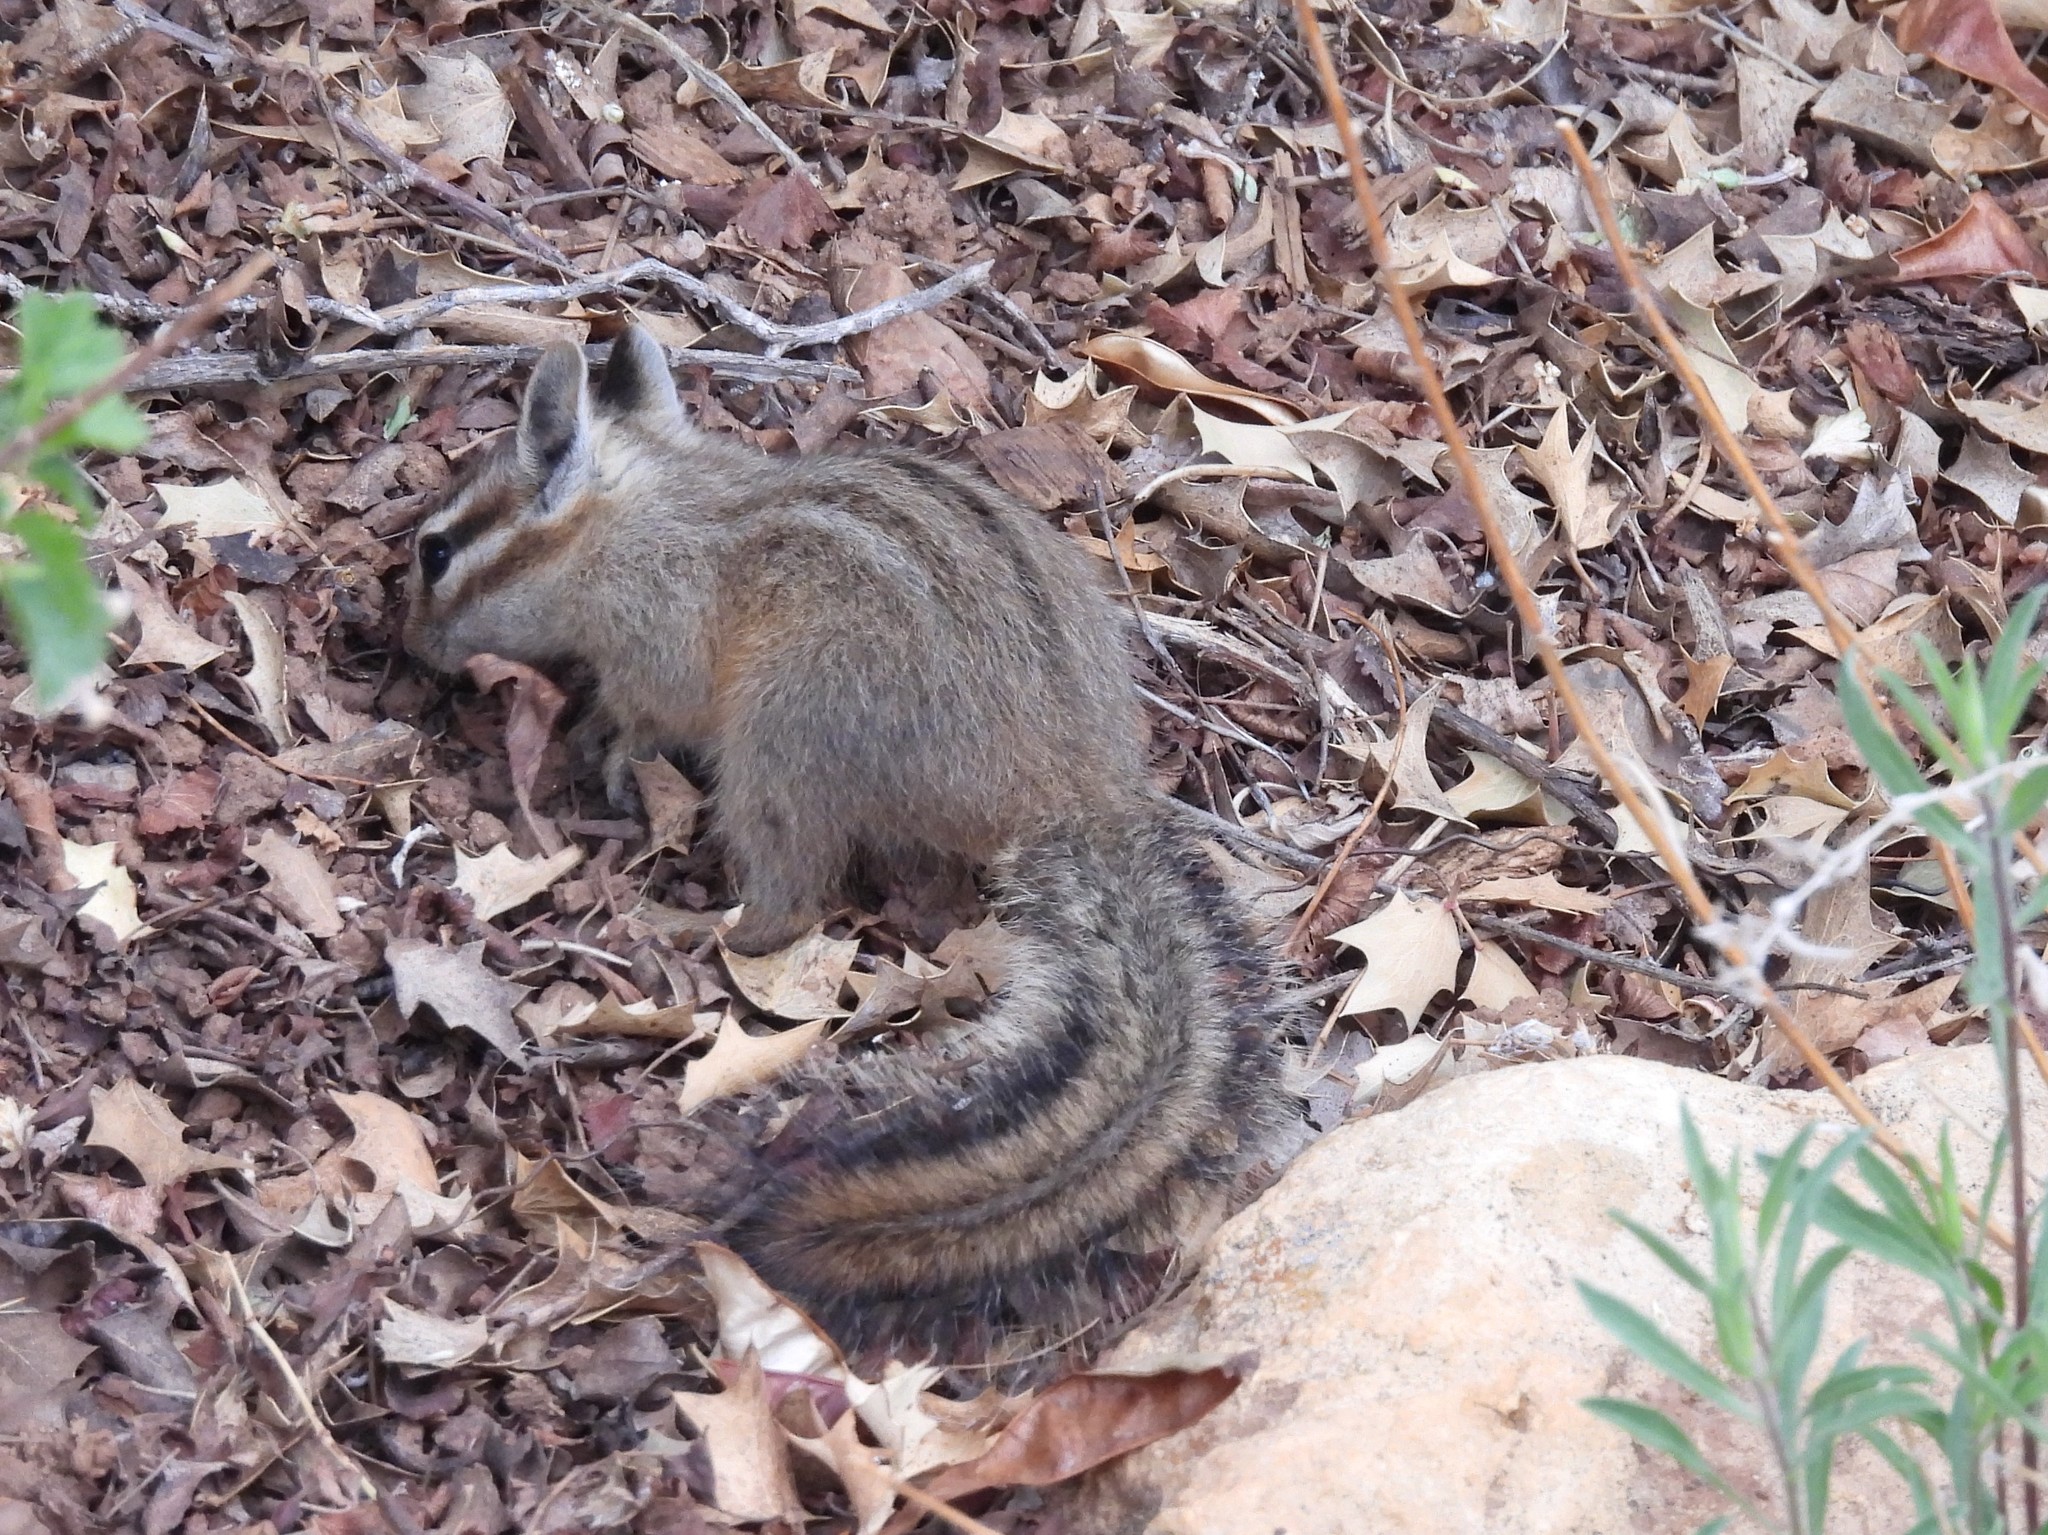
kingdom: Animalia
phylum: Chordata
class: Mammalia
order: Rodentia
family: Sciuridae
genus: Tamias
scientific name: Tamias dorsalis
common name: Cliff chipmunk
